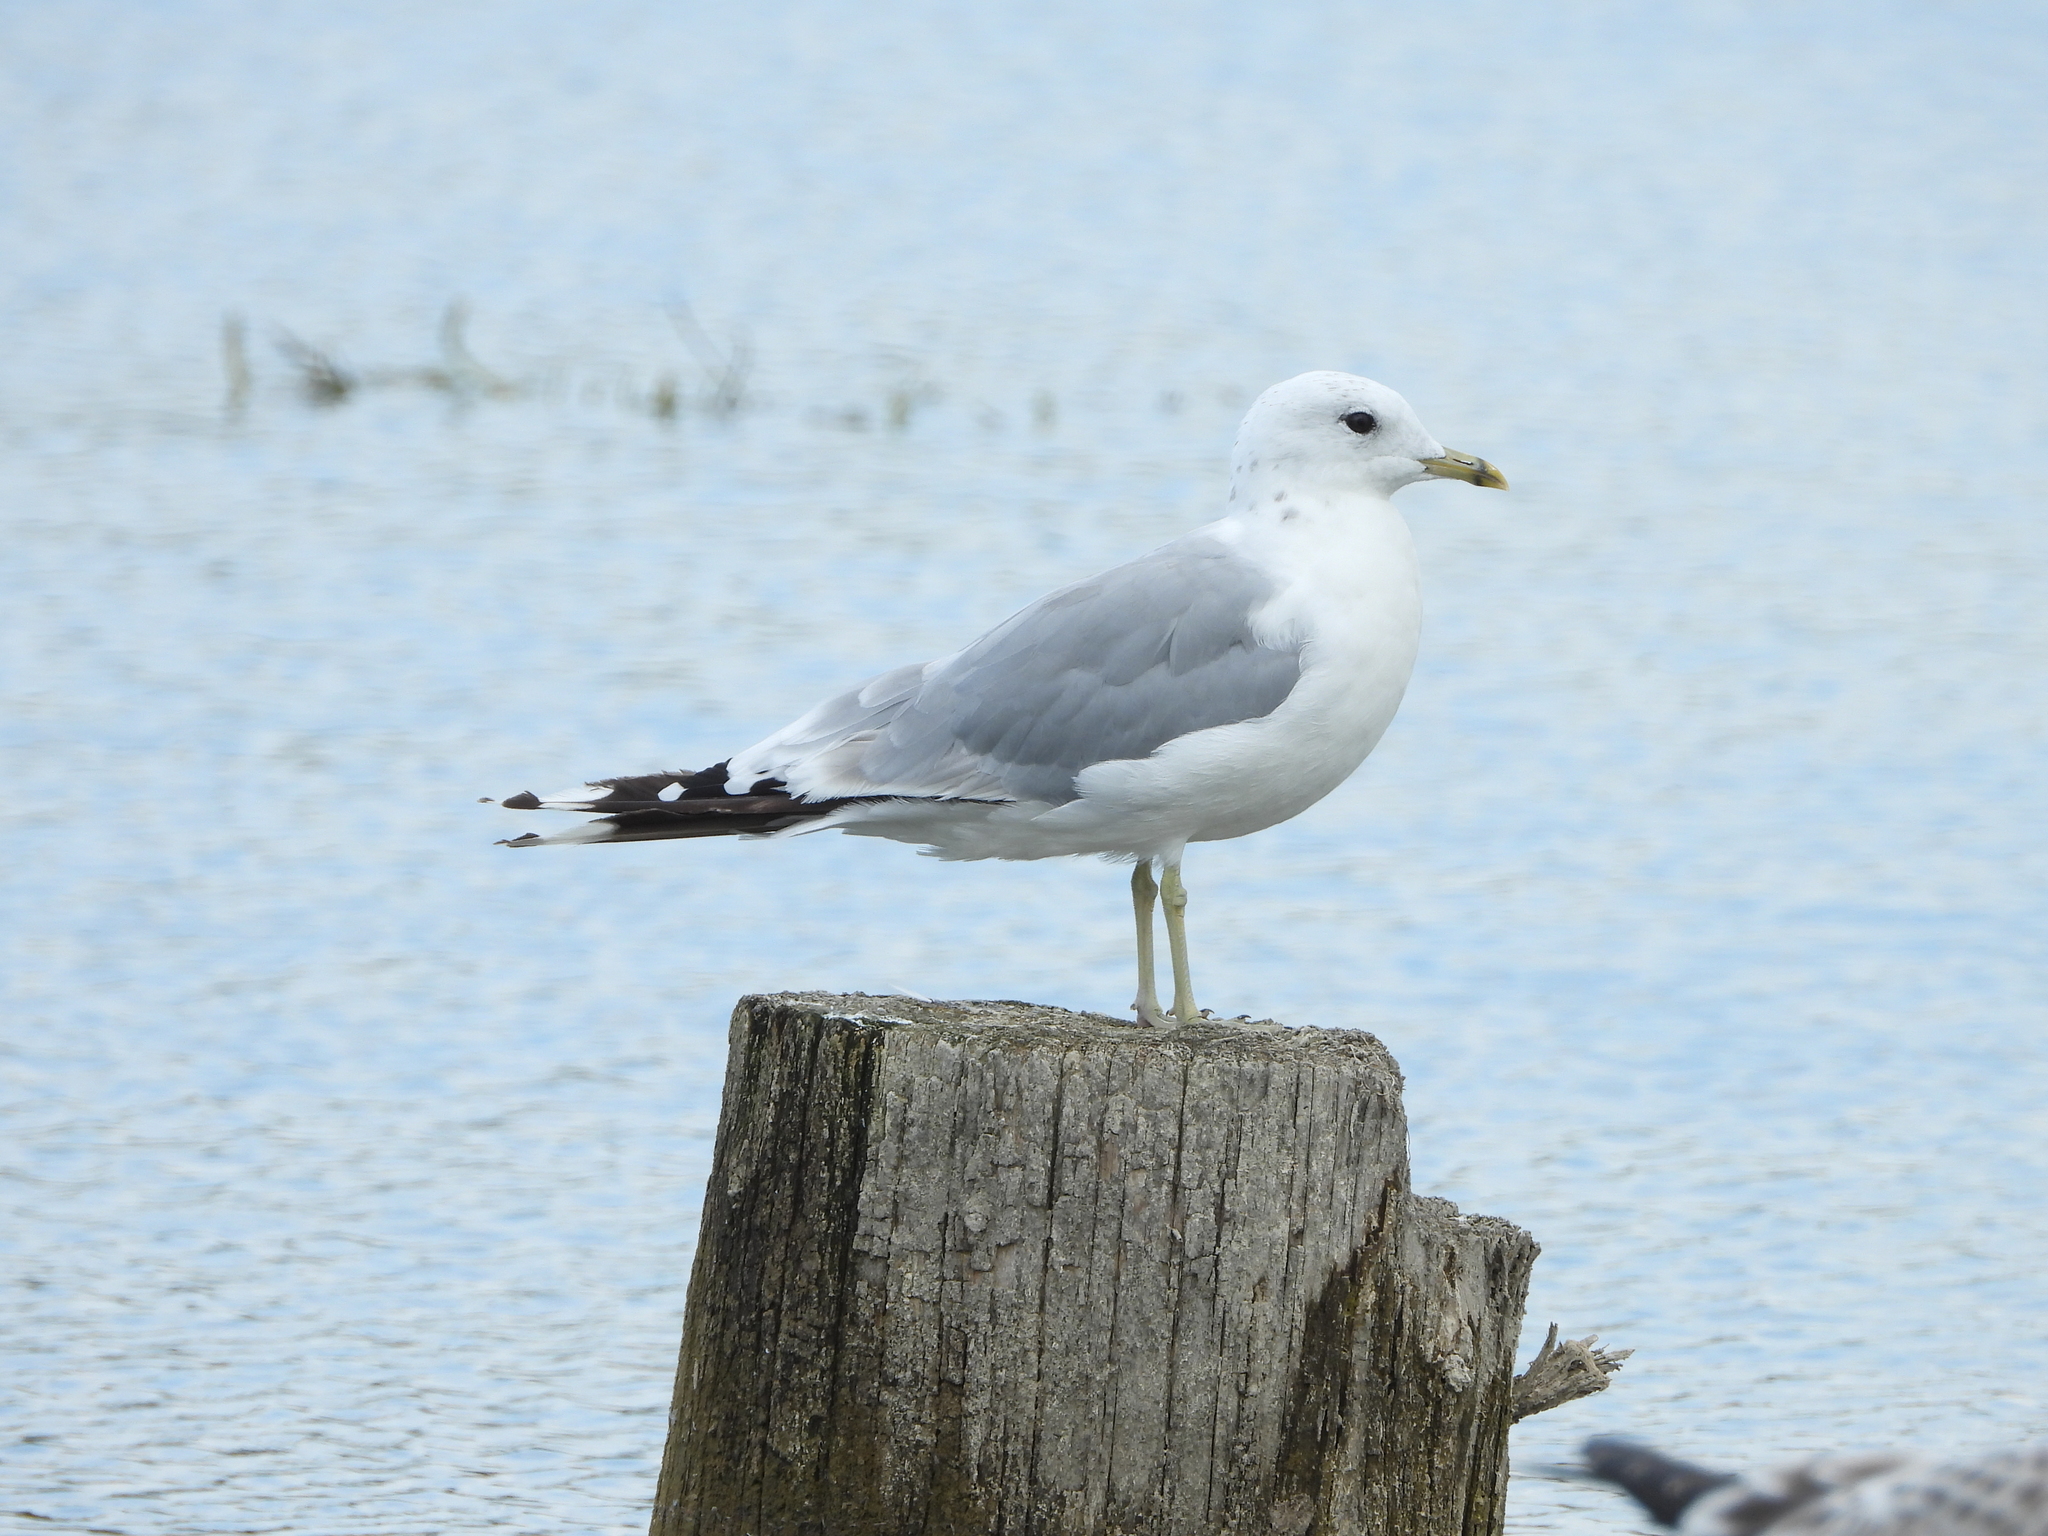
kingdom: Animalia
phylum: Chordata
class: Aves
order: Charadriiformes
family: Laridae
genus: Larus
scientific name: Larus canus
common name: Mew gull
